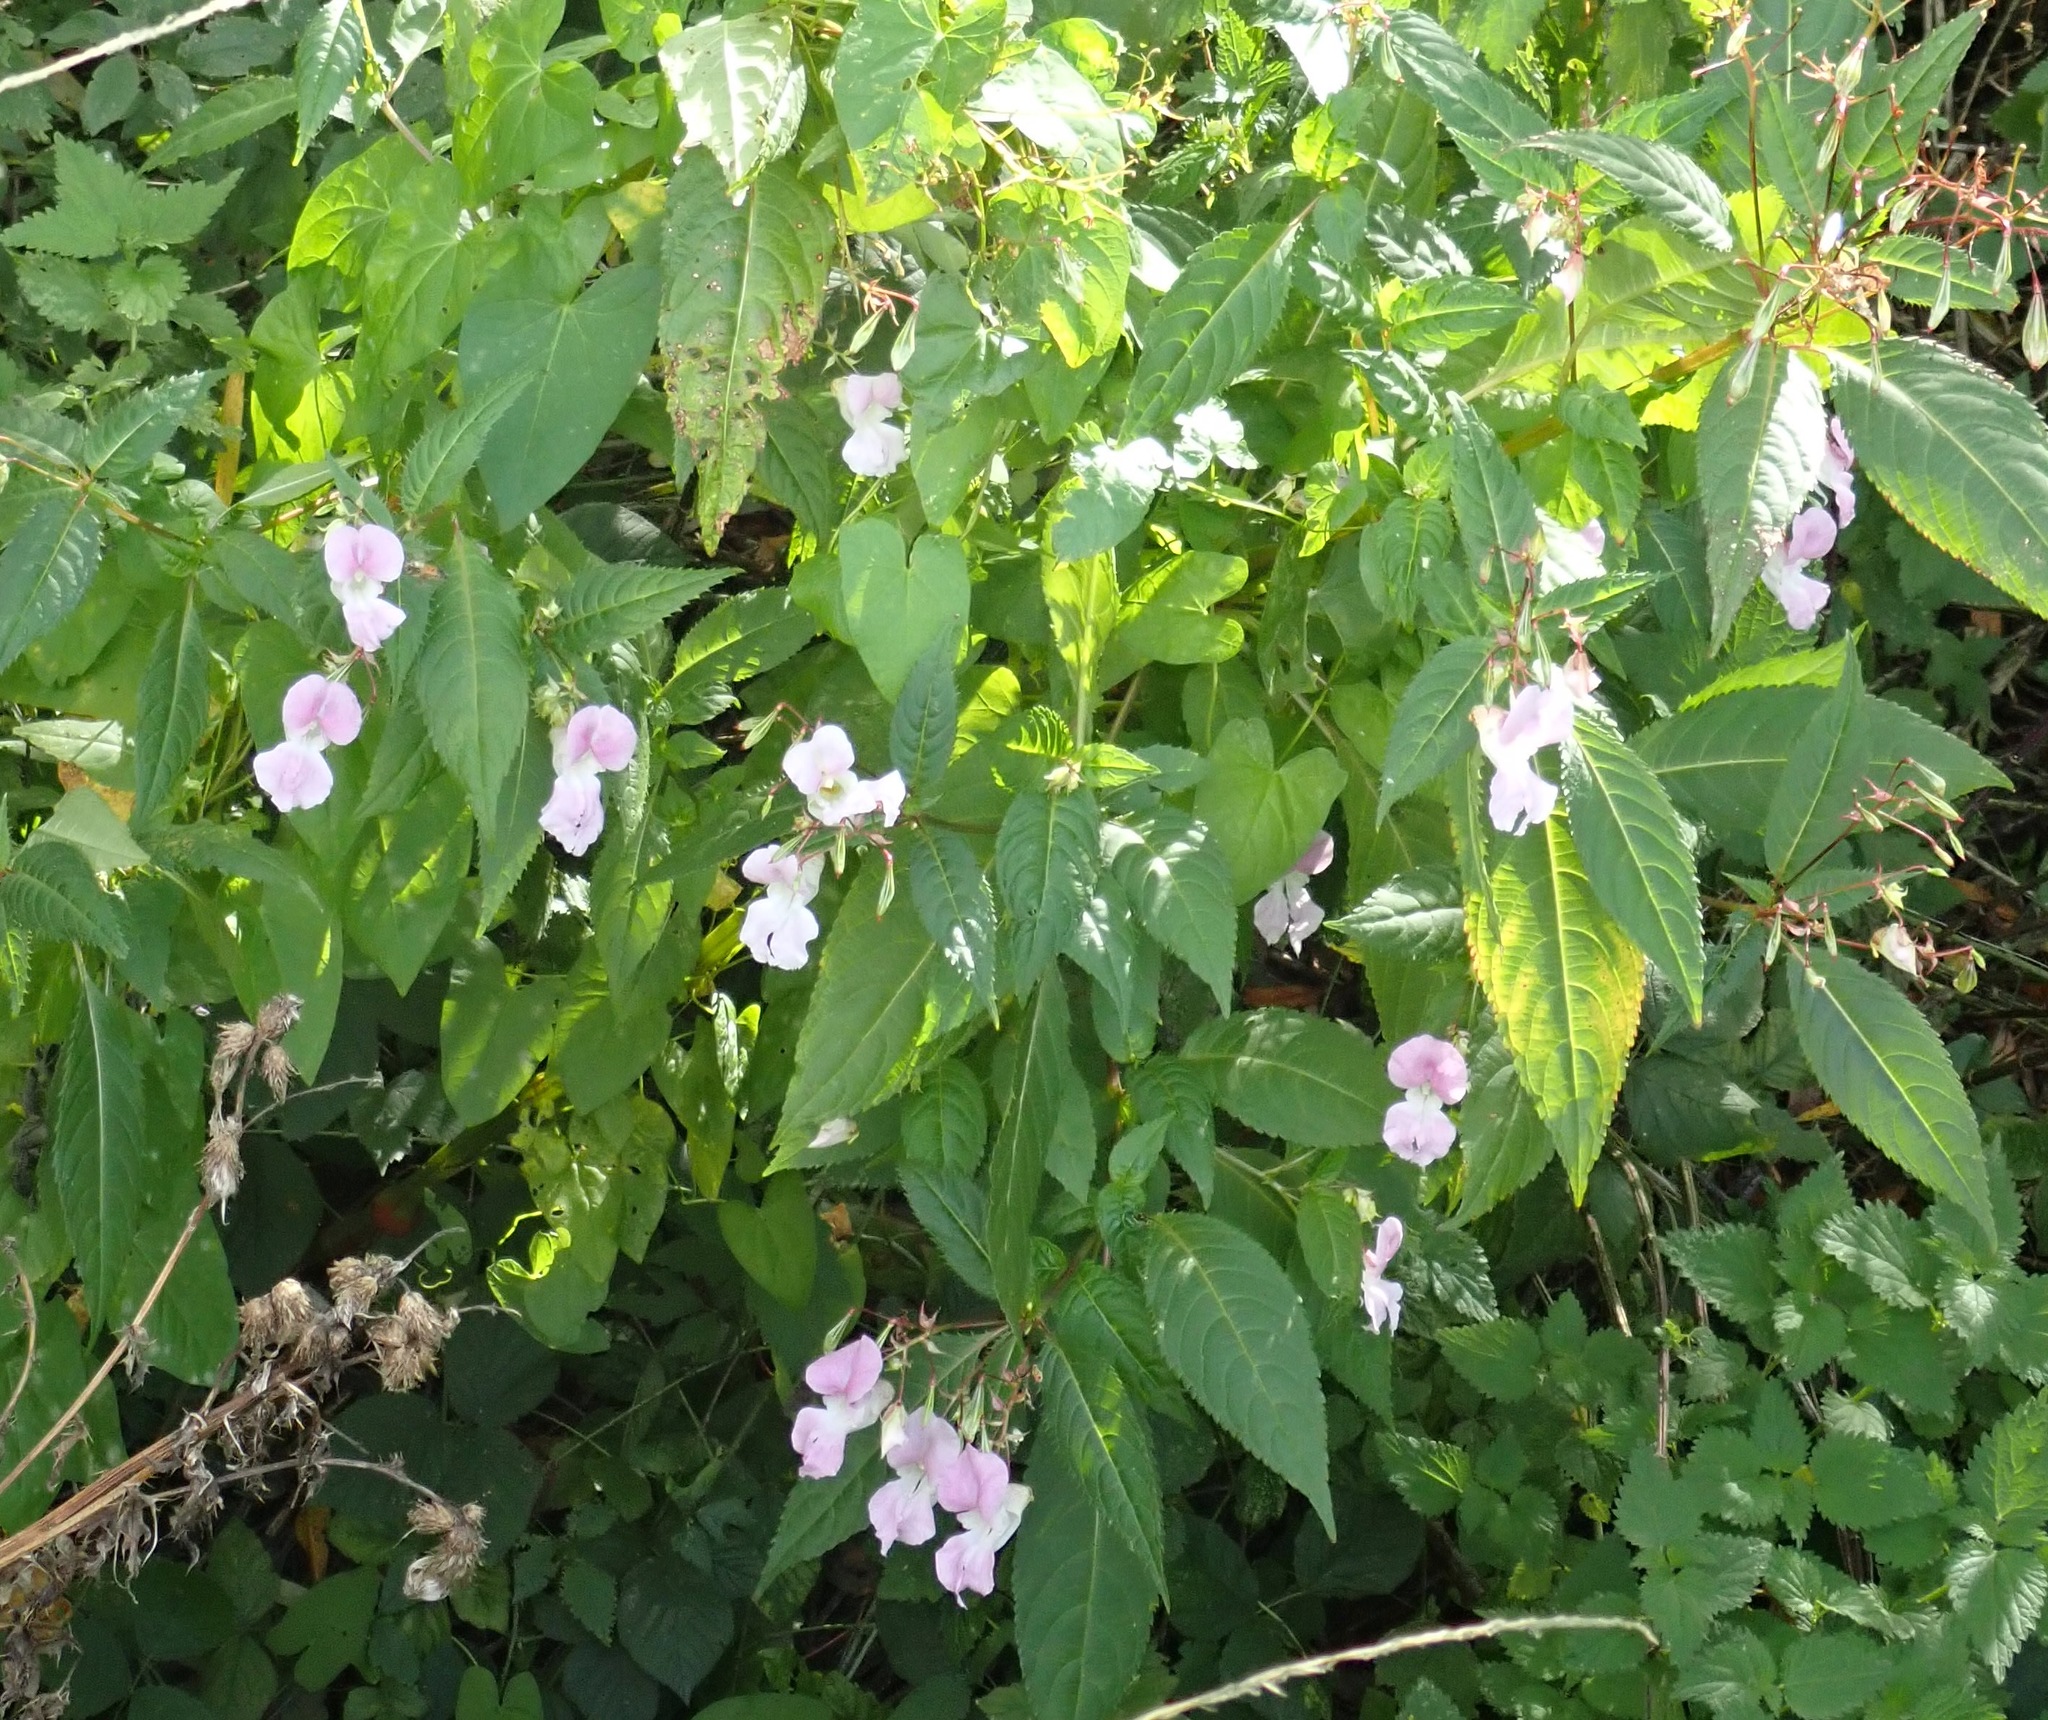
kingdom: Plantae
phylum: Tracheophyta
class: Magnoliopsida
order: Ericales
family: Balsaminaceae
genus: Impatiens
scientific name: Impatiens glandulifera
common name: Himalayan balsam
